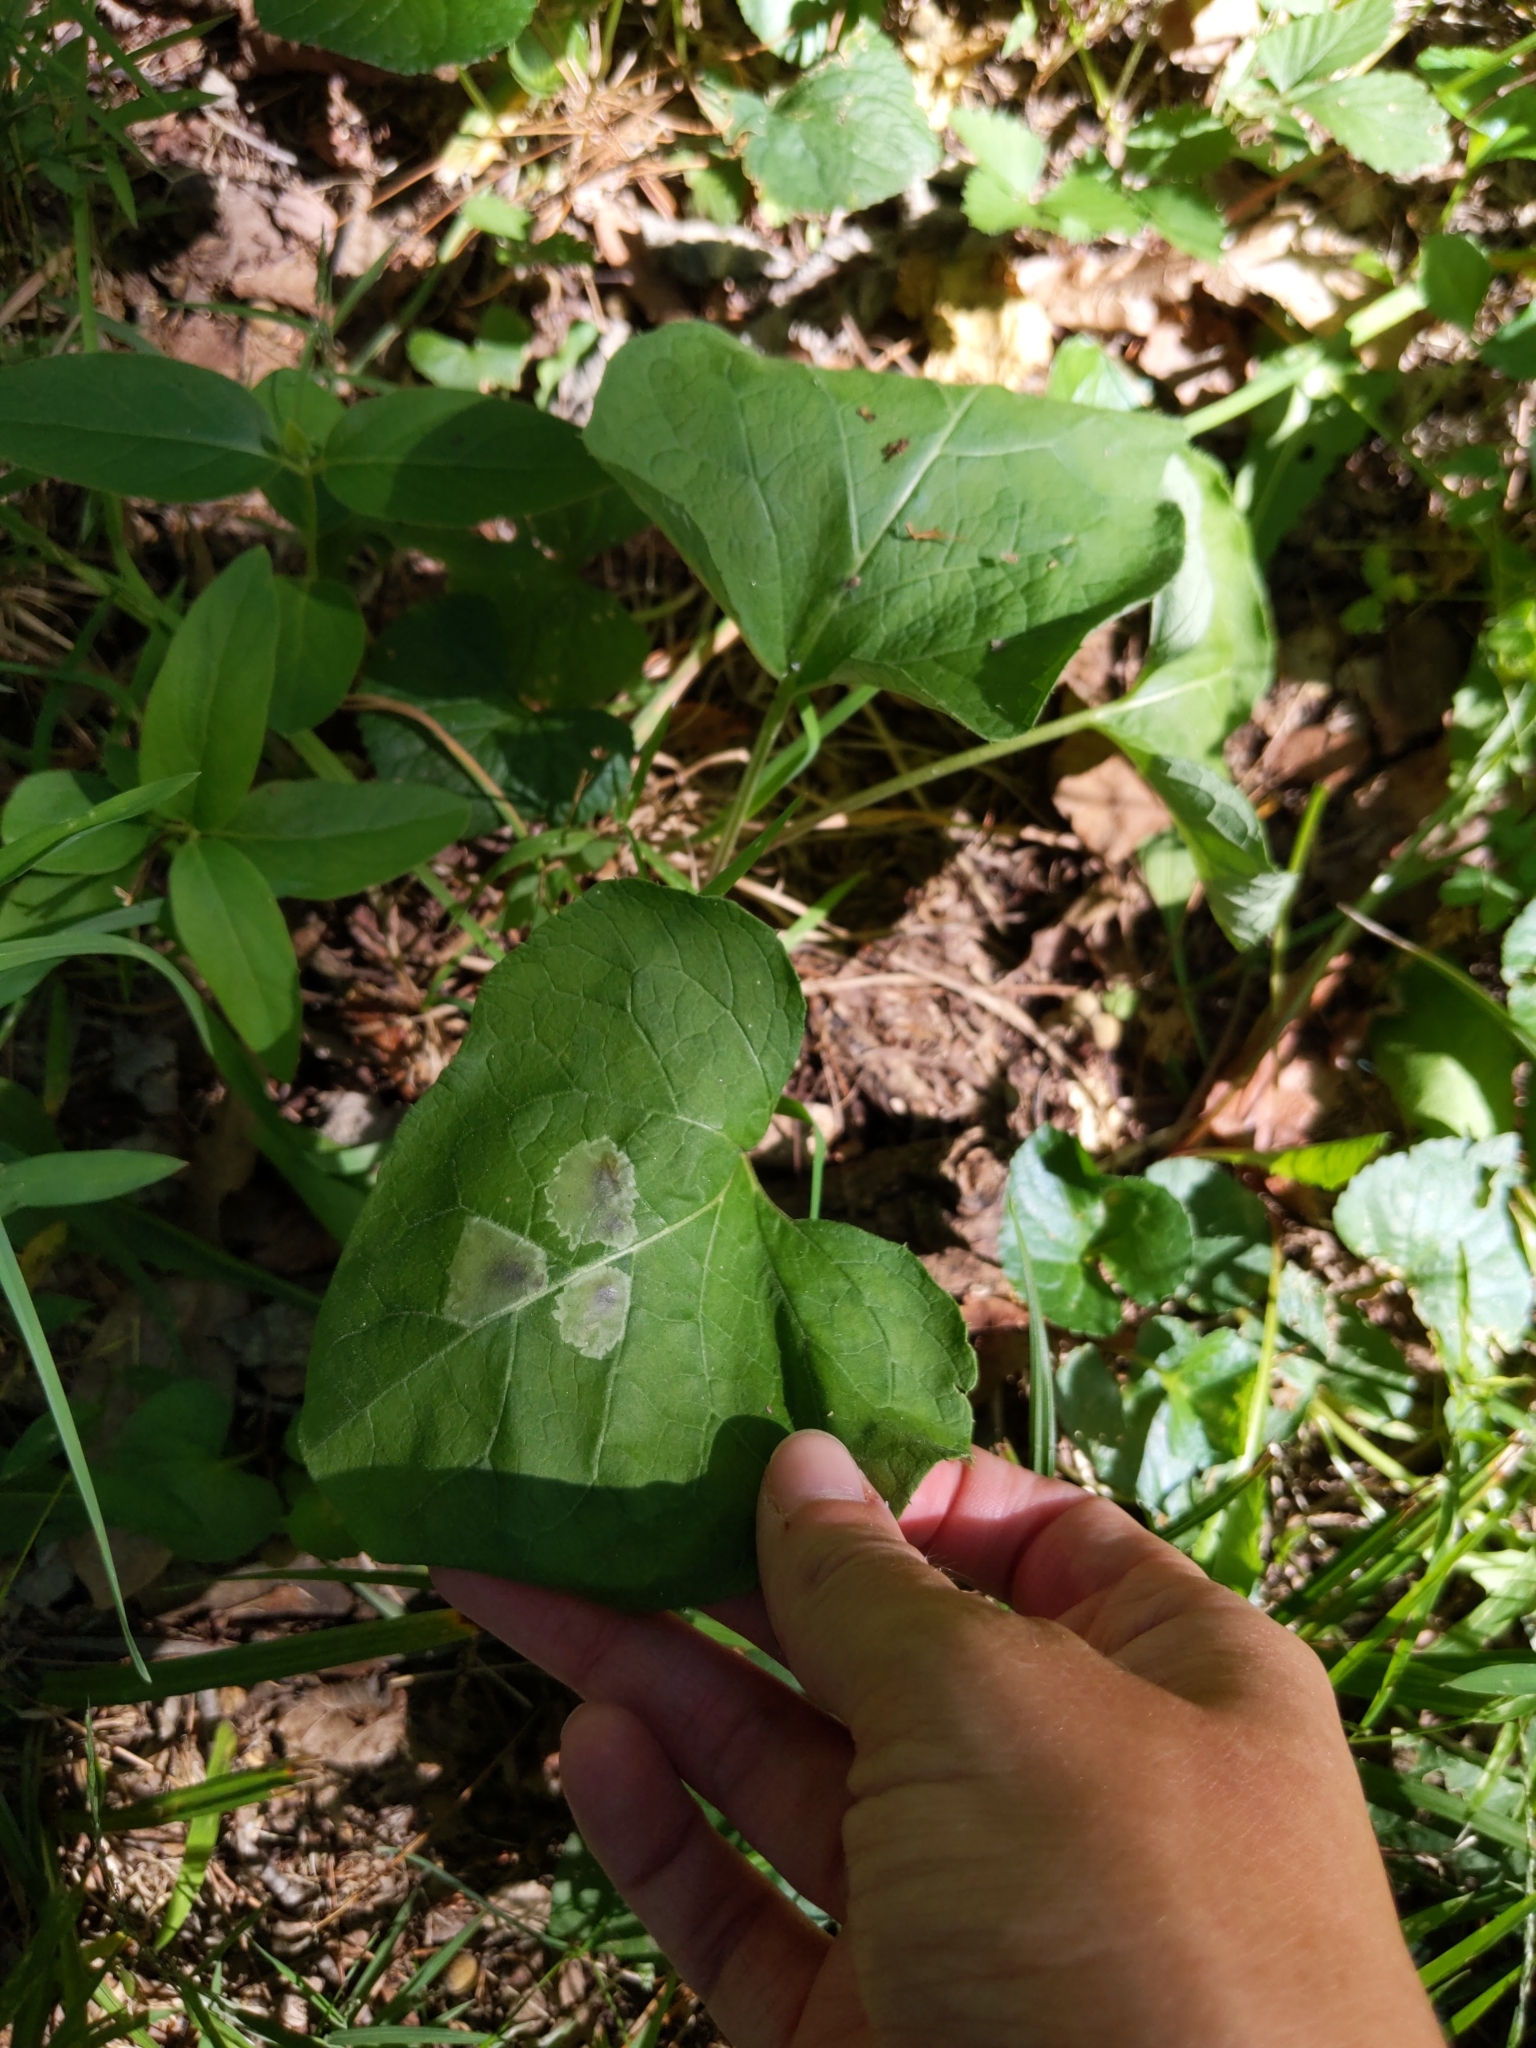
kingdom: Animalia
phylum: Arthropoda
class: Insecta
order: Diptera
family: Agromyzidae
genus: Calycomyza
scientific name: Calycomyza flavinotum
